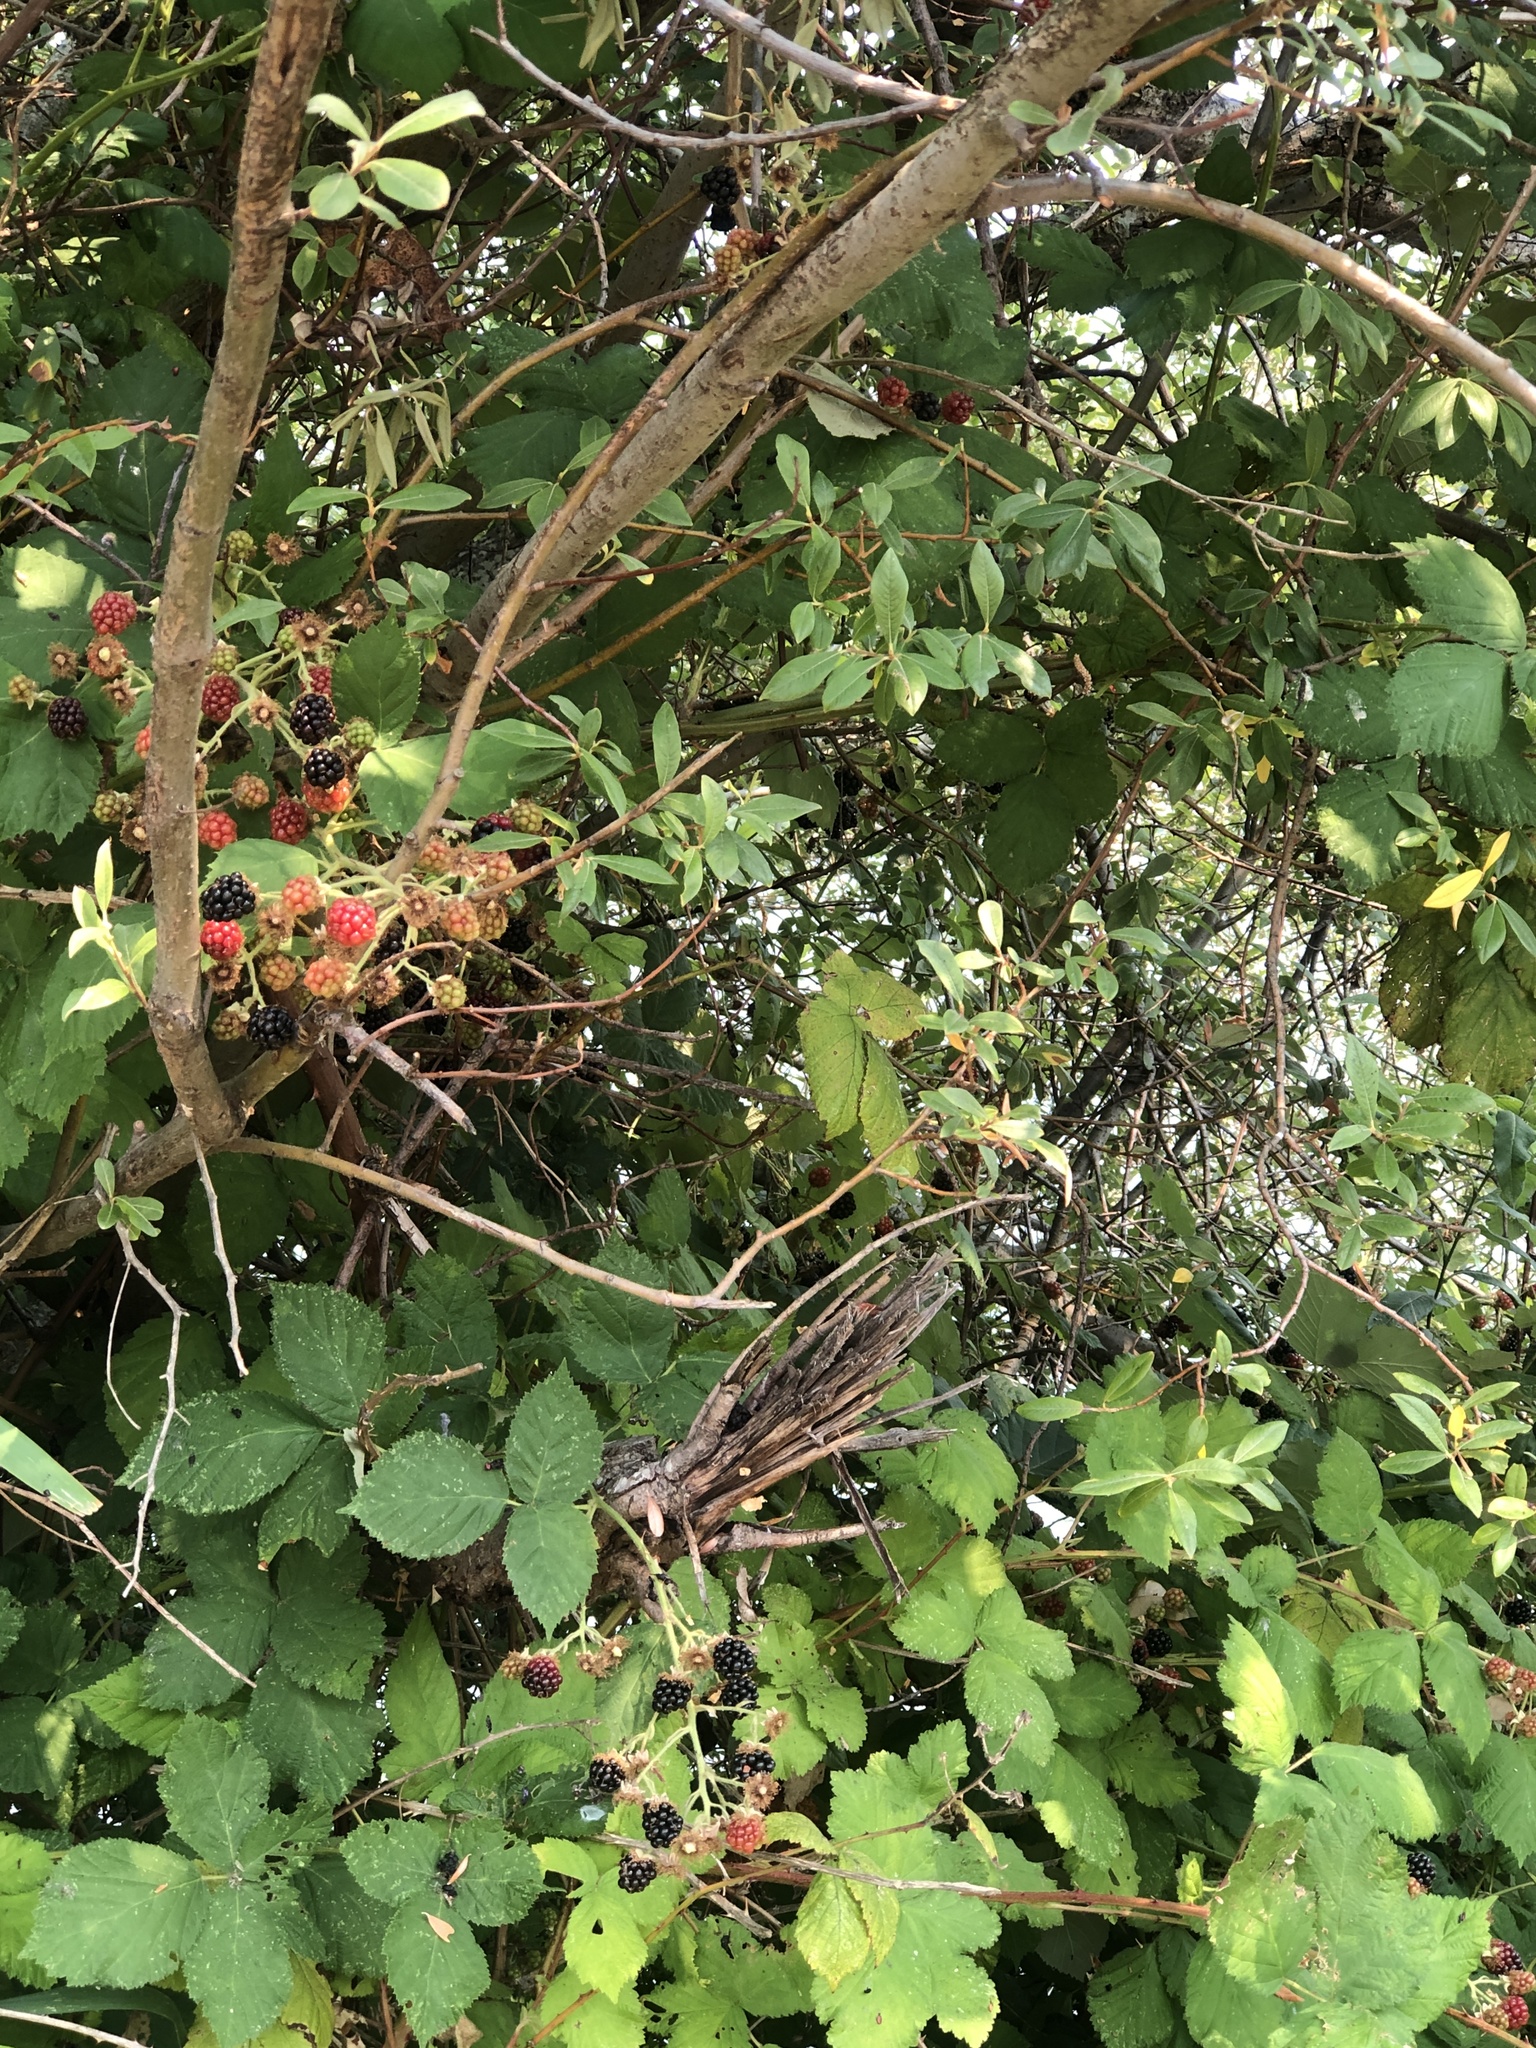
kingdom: Plantae
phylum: Tracheophyta
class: Magnoliopsida
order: Rosales
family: Rosaceae
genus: Rubus
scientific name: Rubus bifrons
